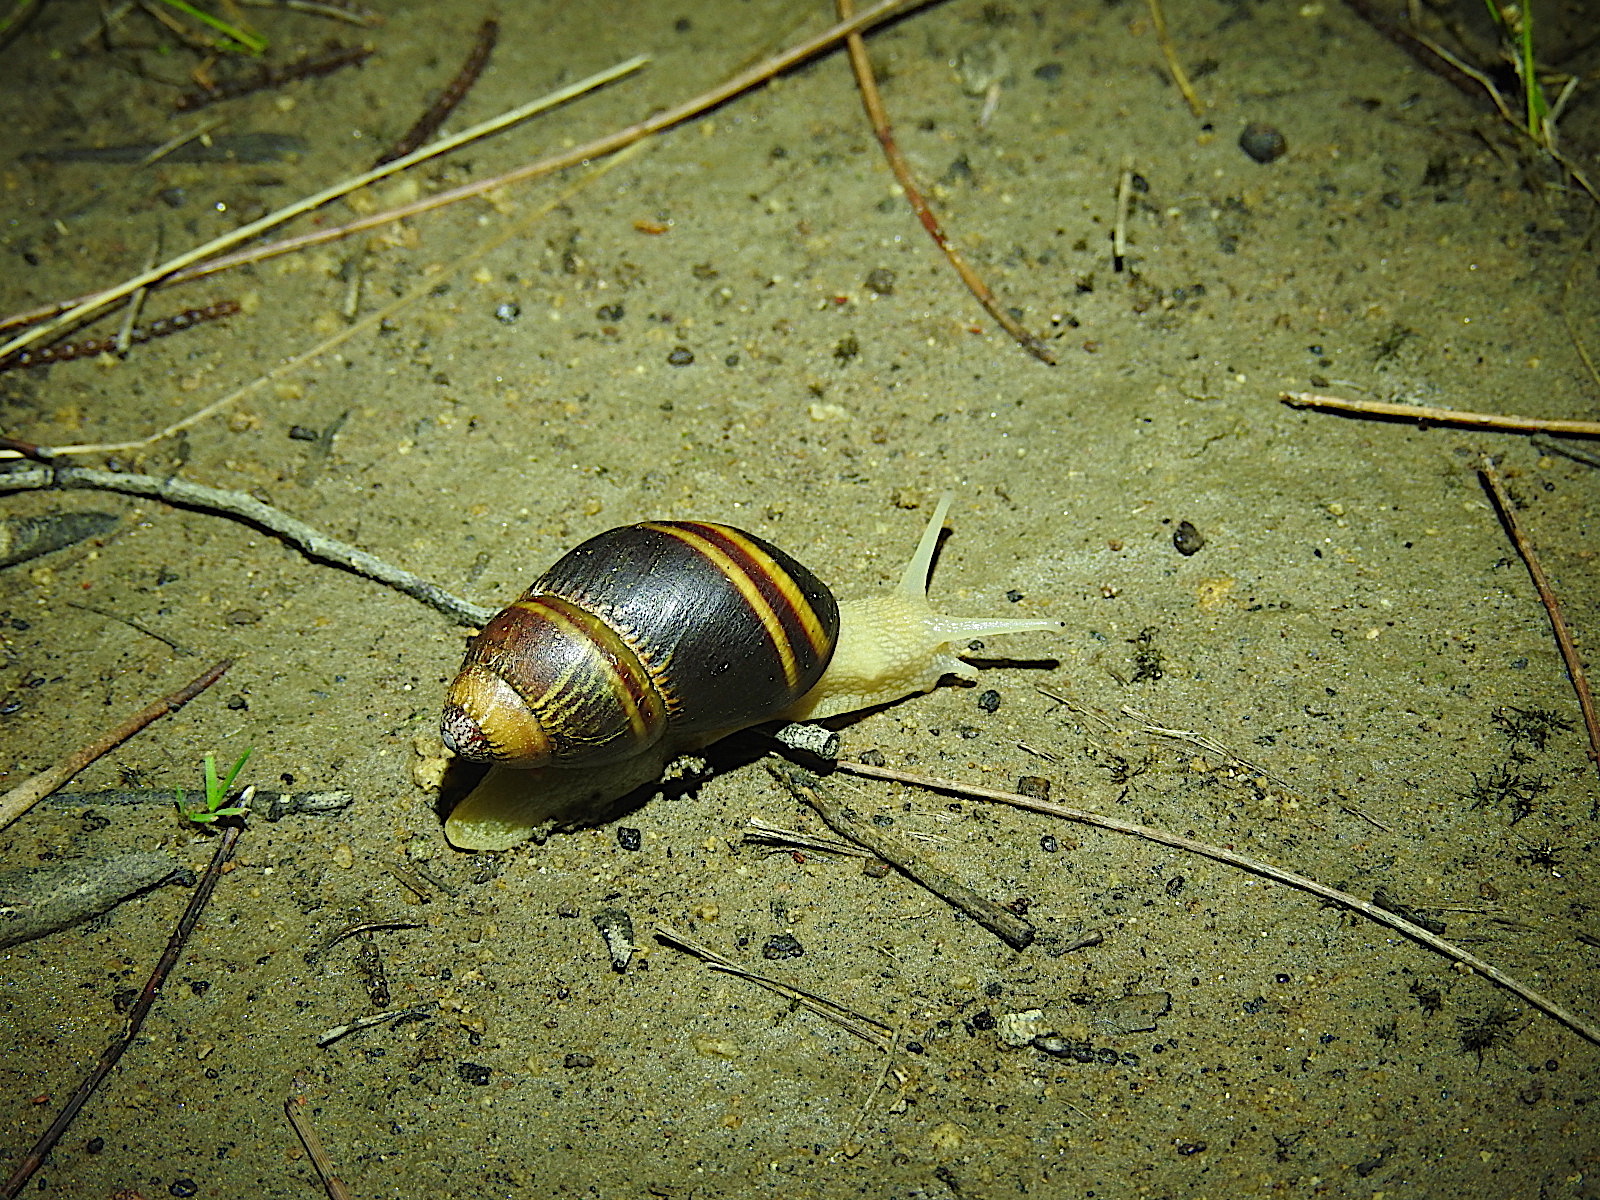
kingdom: Animalia
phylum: Mollusca
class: Gastropoda
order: Stylommatophora
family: Caryodidae
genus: Caryodes
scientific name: Caryodes dufresnii
